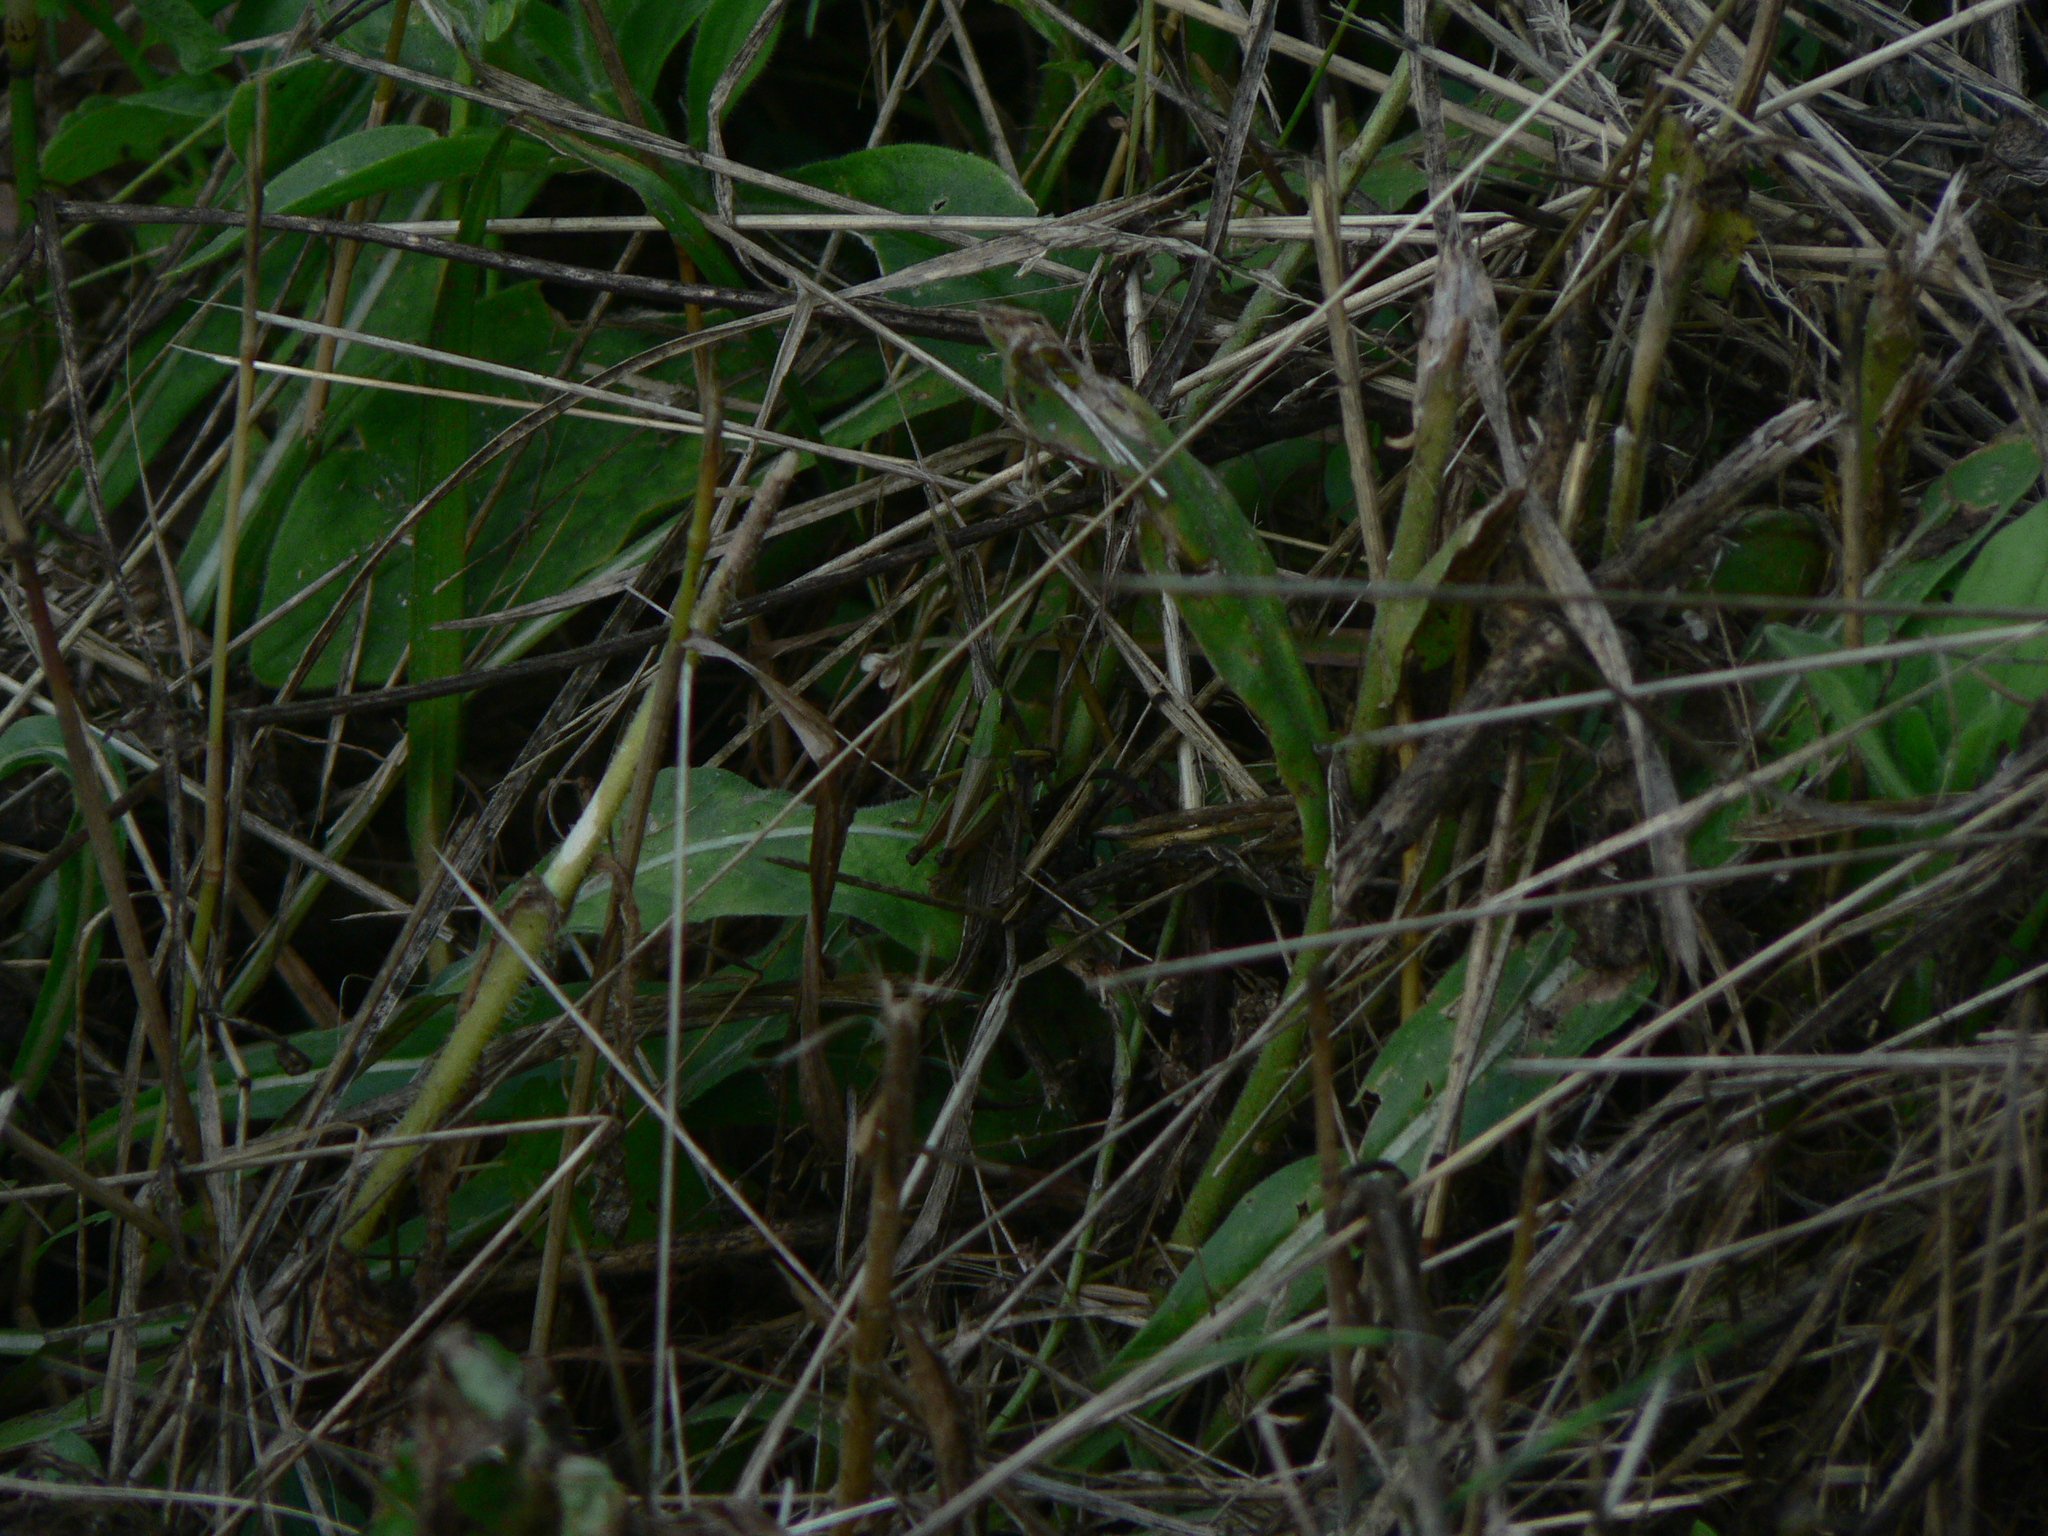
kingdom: Animalia
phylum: Arthropoda
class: Insecta
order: Orthoptera
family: Acrididae
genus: Pseudochorthippus
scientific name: Pseudochorthippus parallelus
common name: Meadow grasshopper
